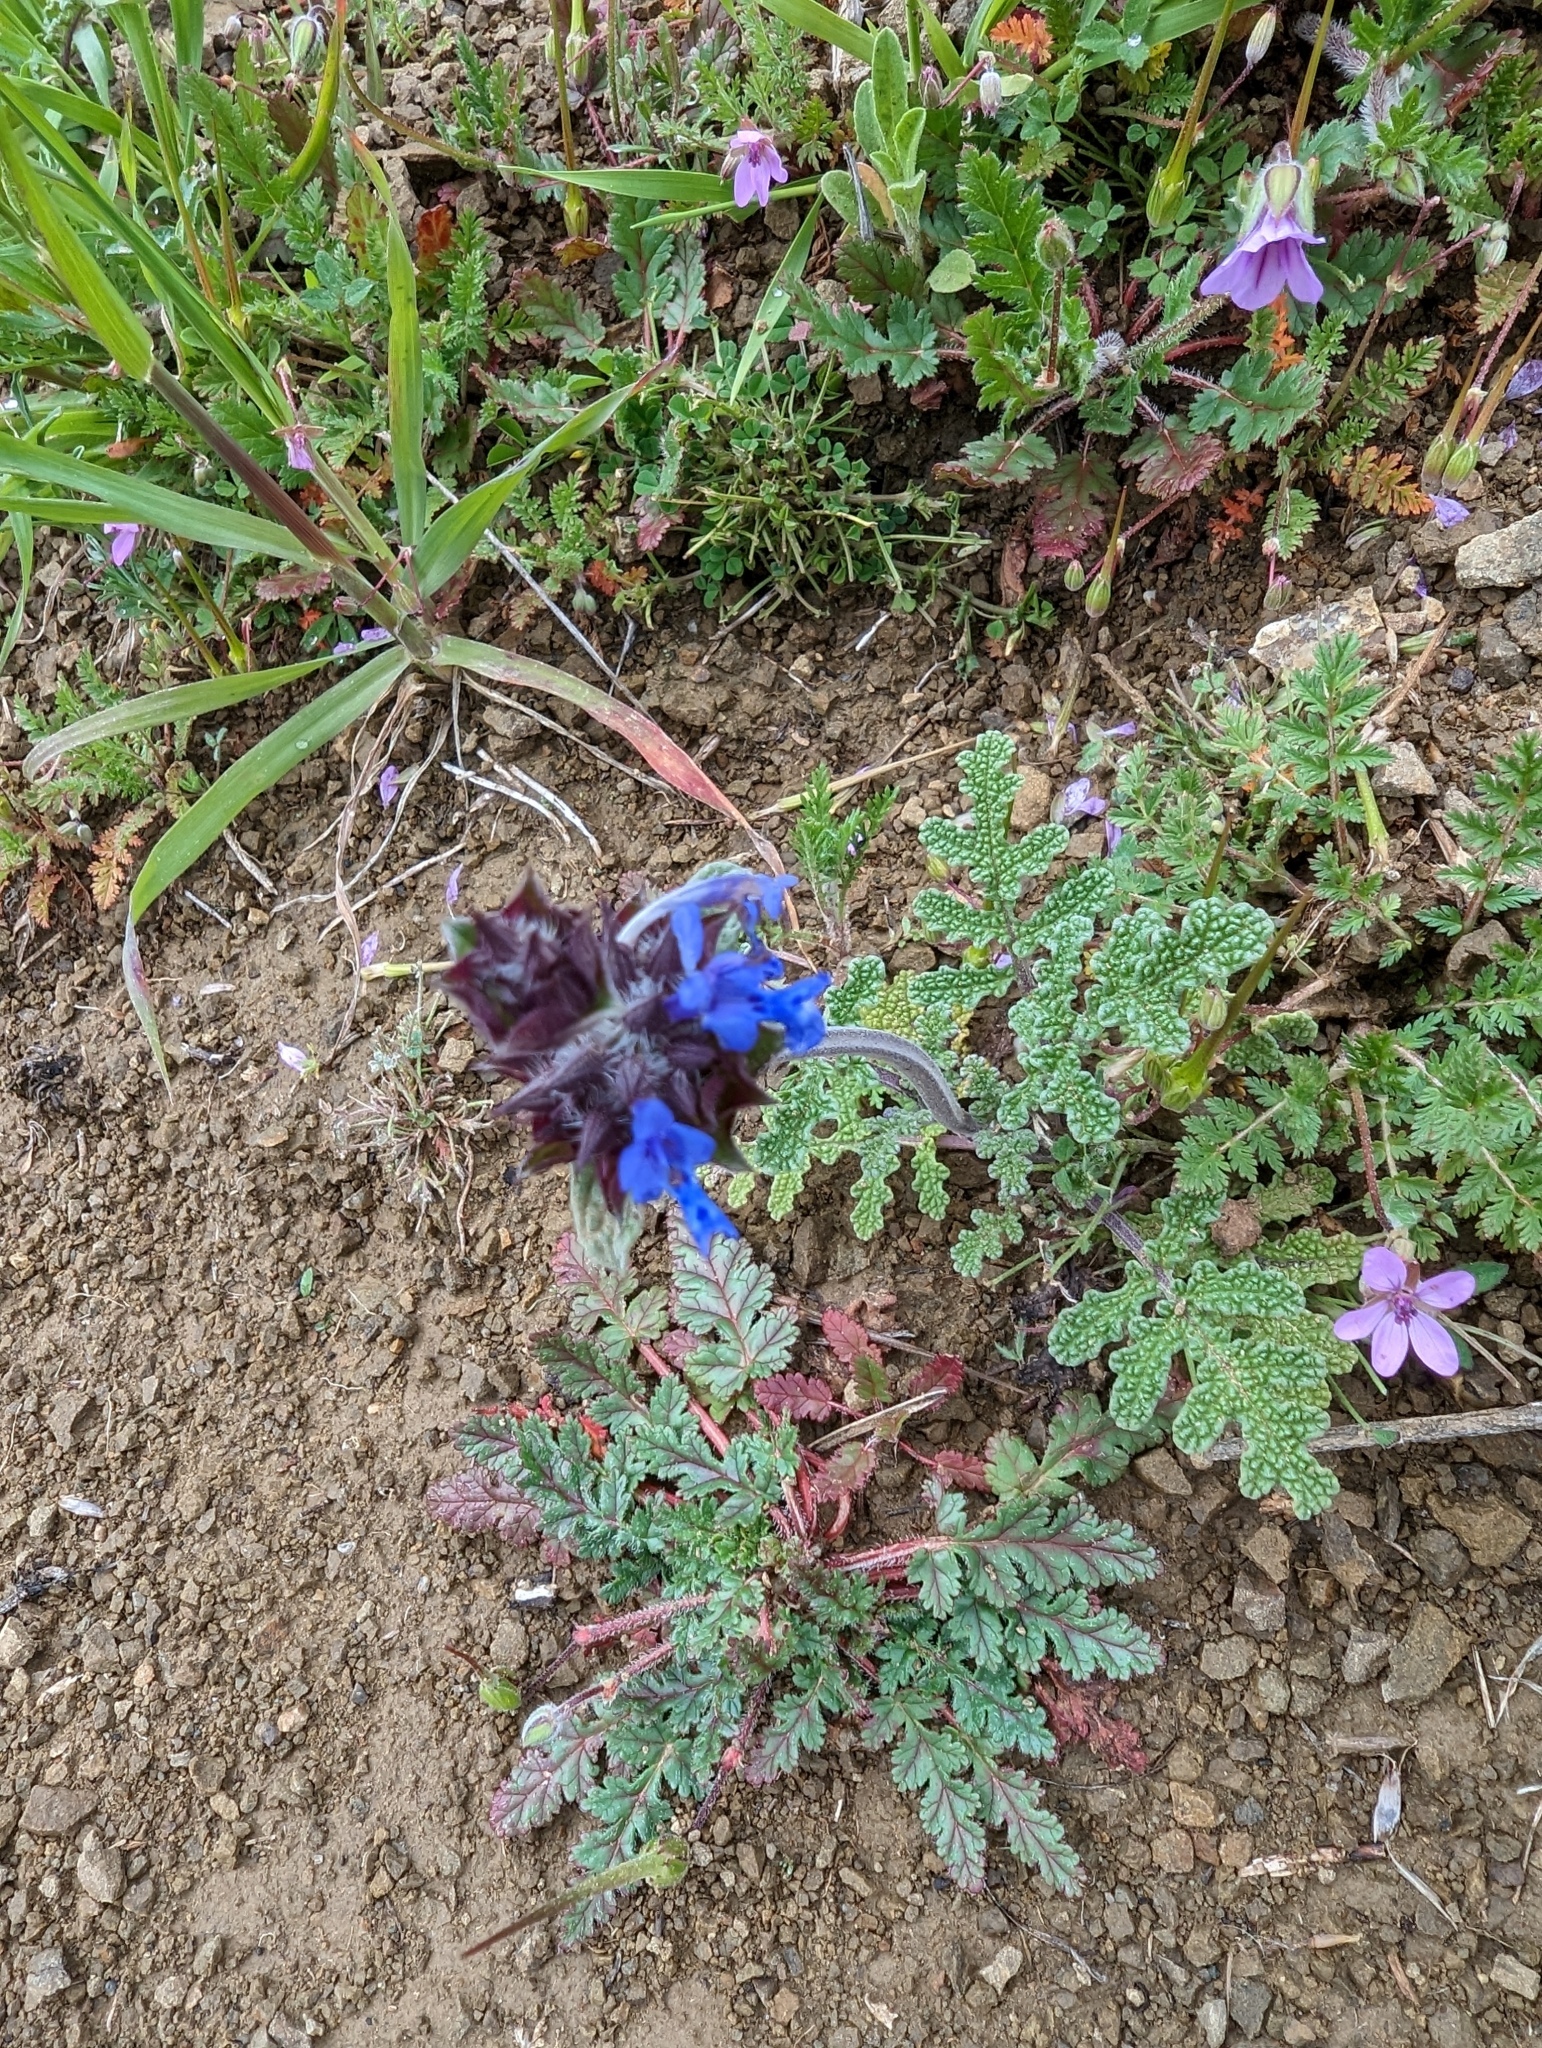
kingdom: Plantae
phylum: Tracheophyta
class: Magnoliopsida
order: Lamiales
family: Lamiaceae
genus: Salvia
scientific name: Salvia columbariae
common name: Chia
